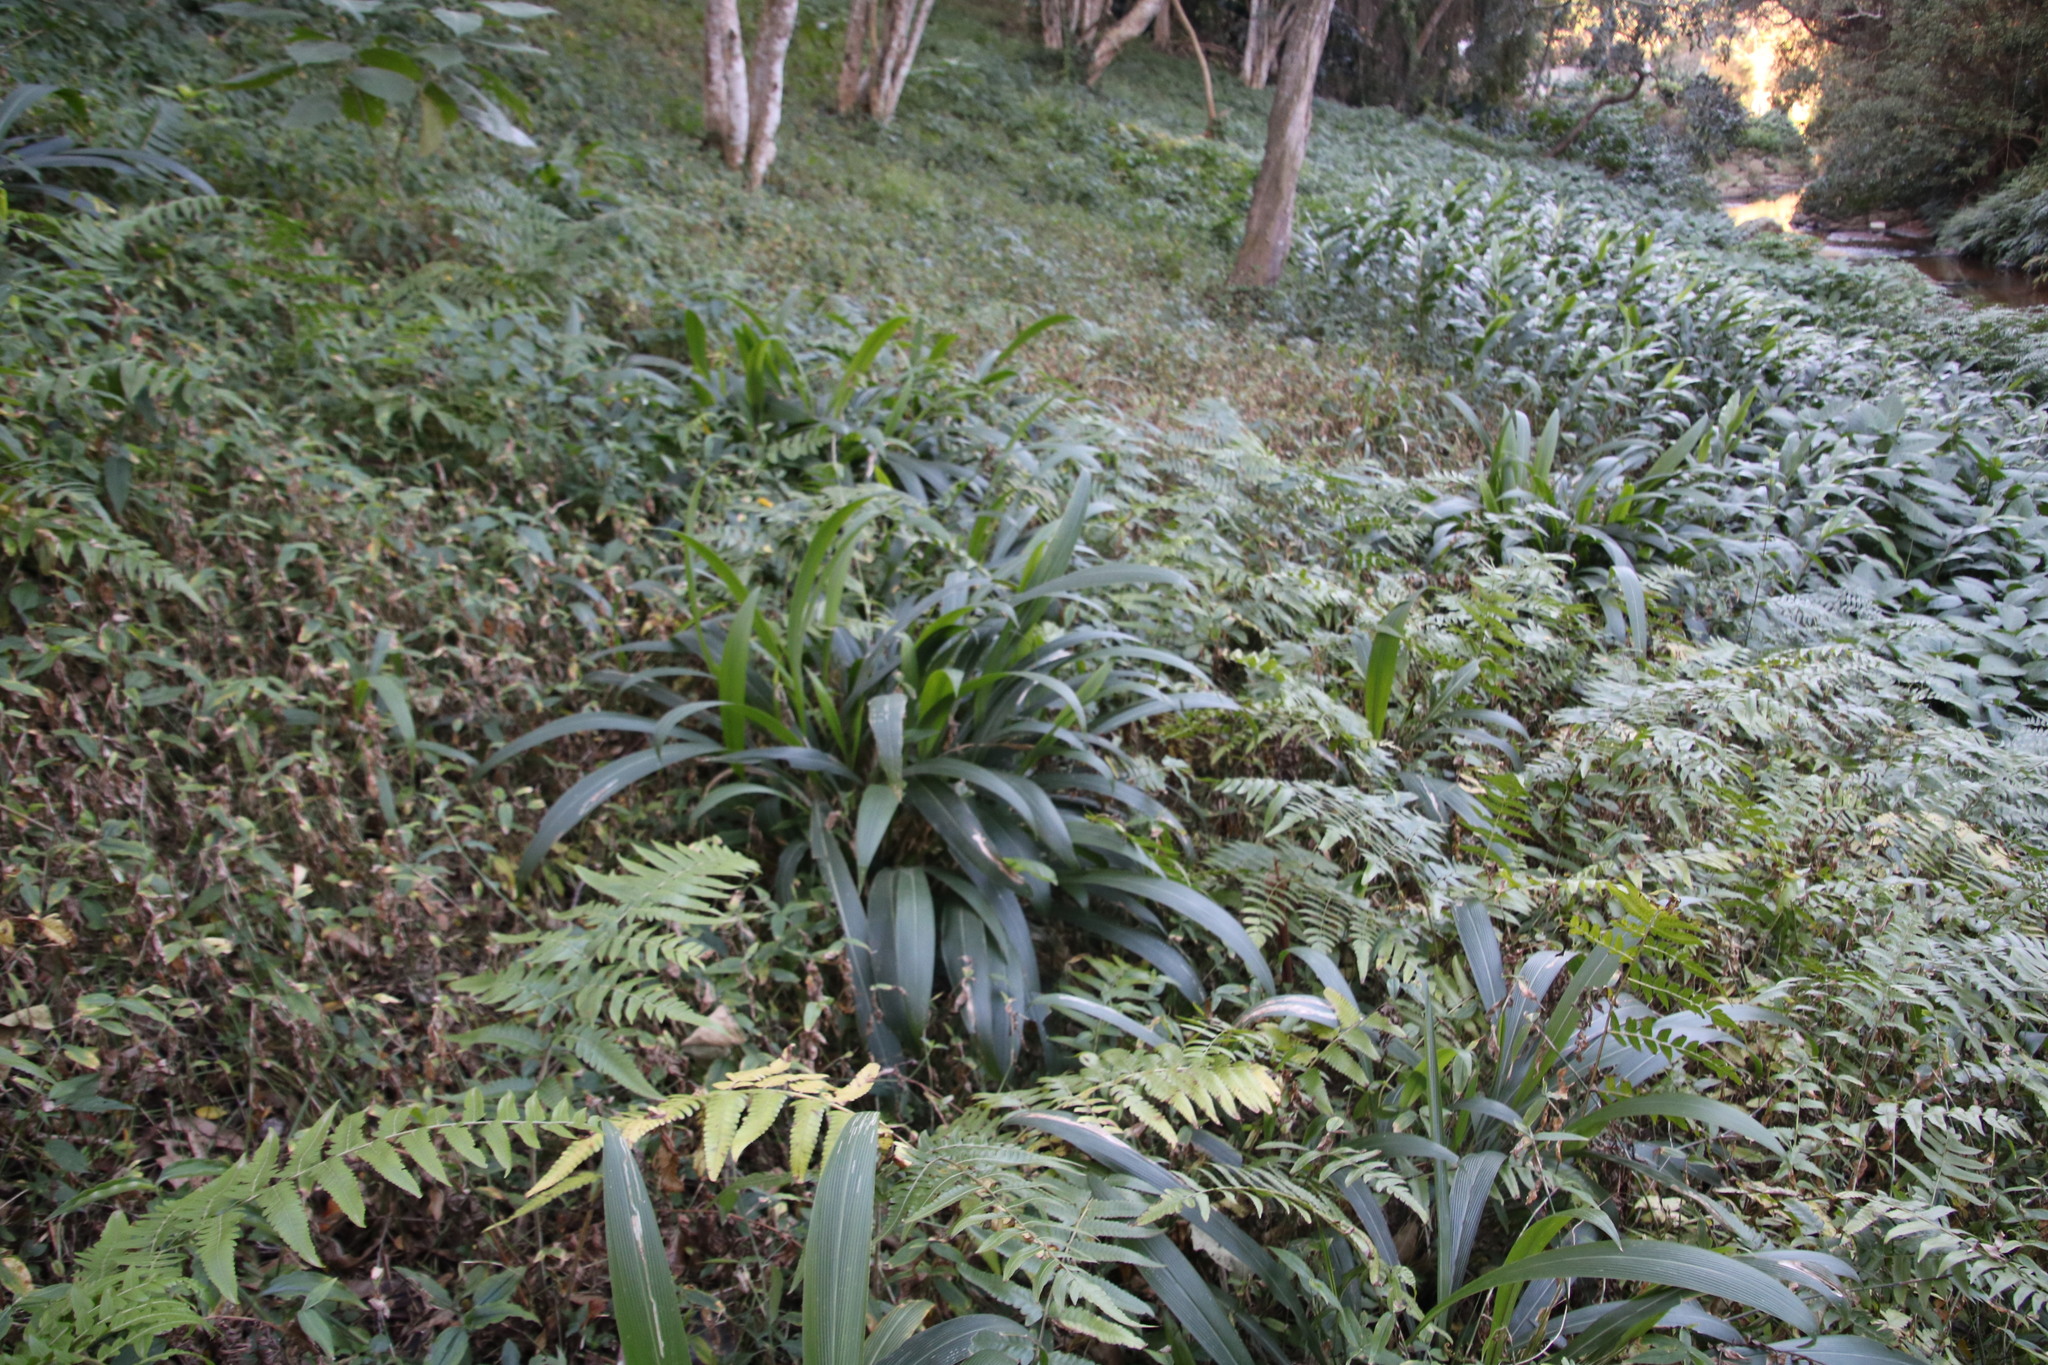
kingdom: Plantae
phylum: Tracheophyta
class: Liliopsida
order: Poales
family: Poaceae
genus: Setaria
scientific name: Setaria megaphylla
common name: Bigleaf bristlegrass
